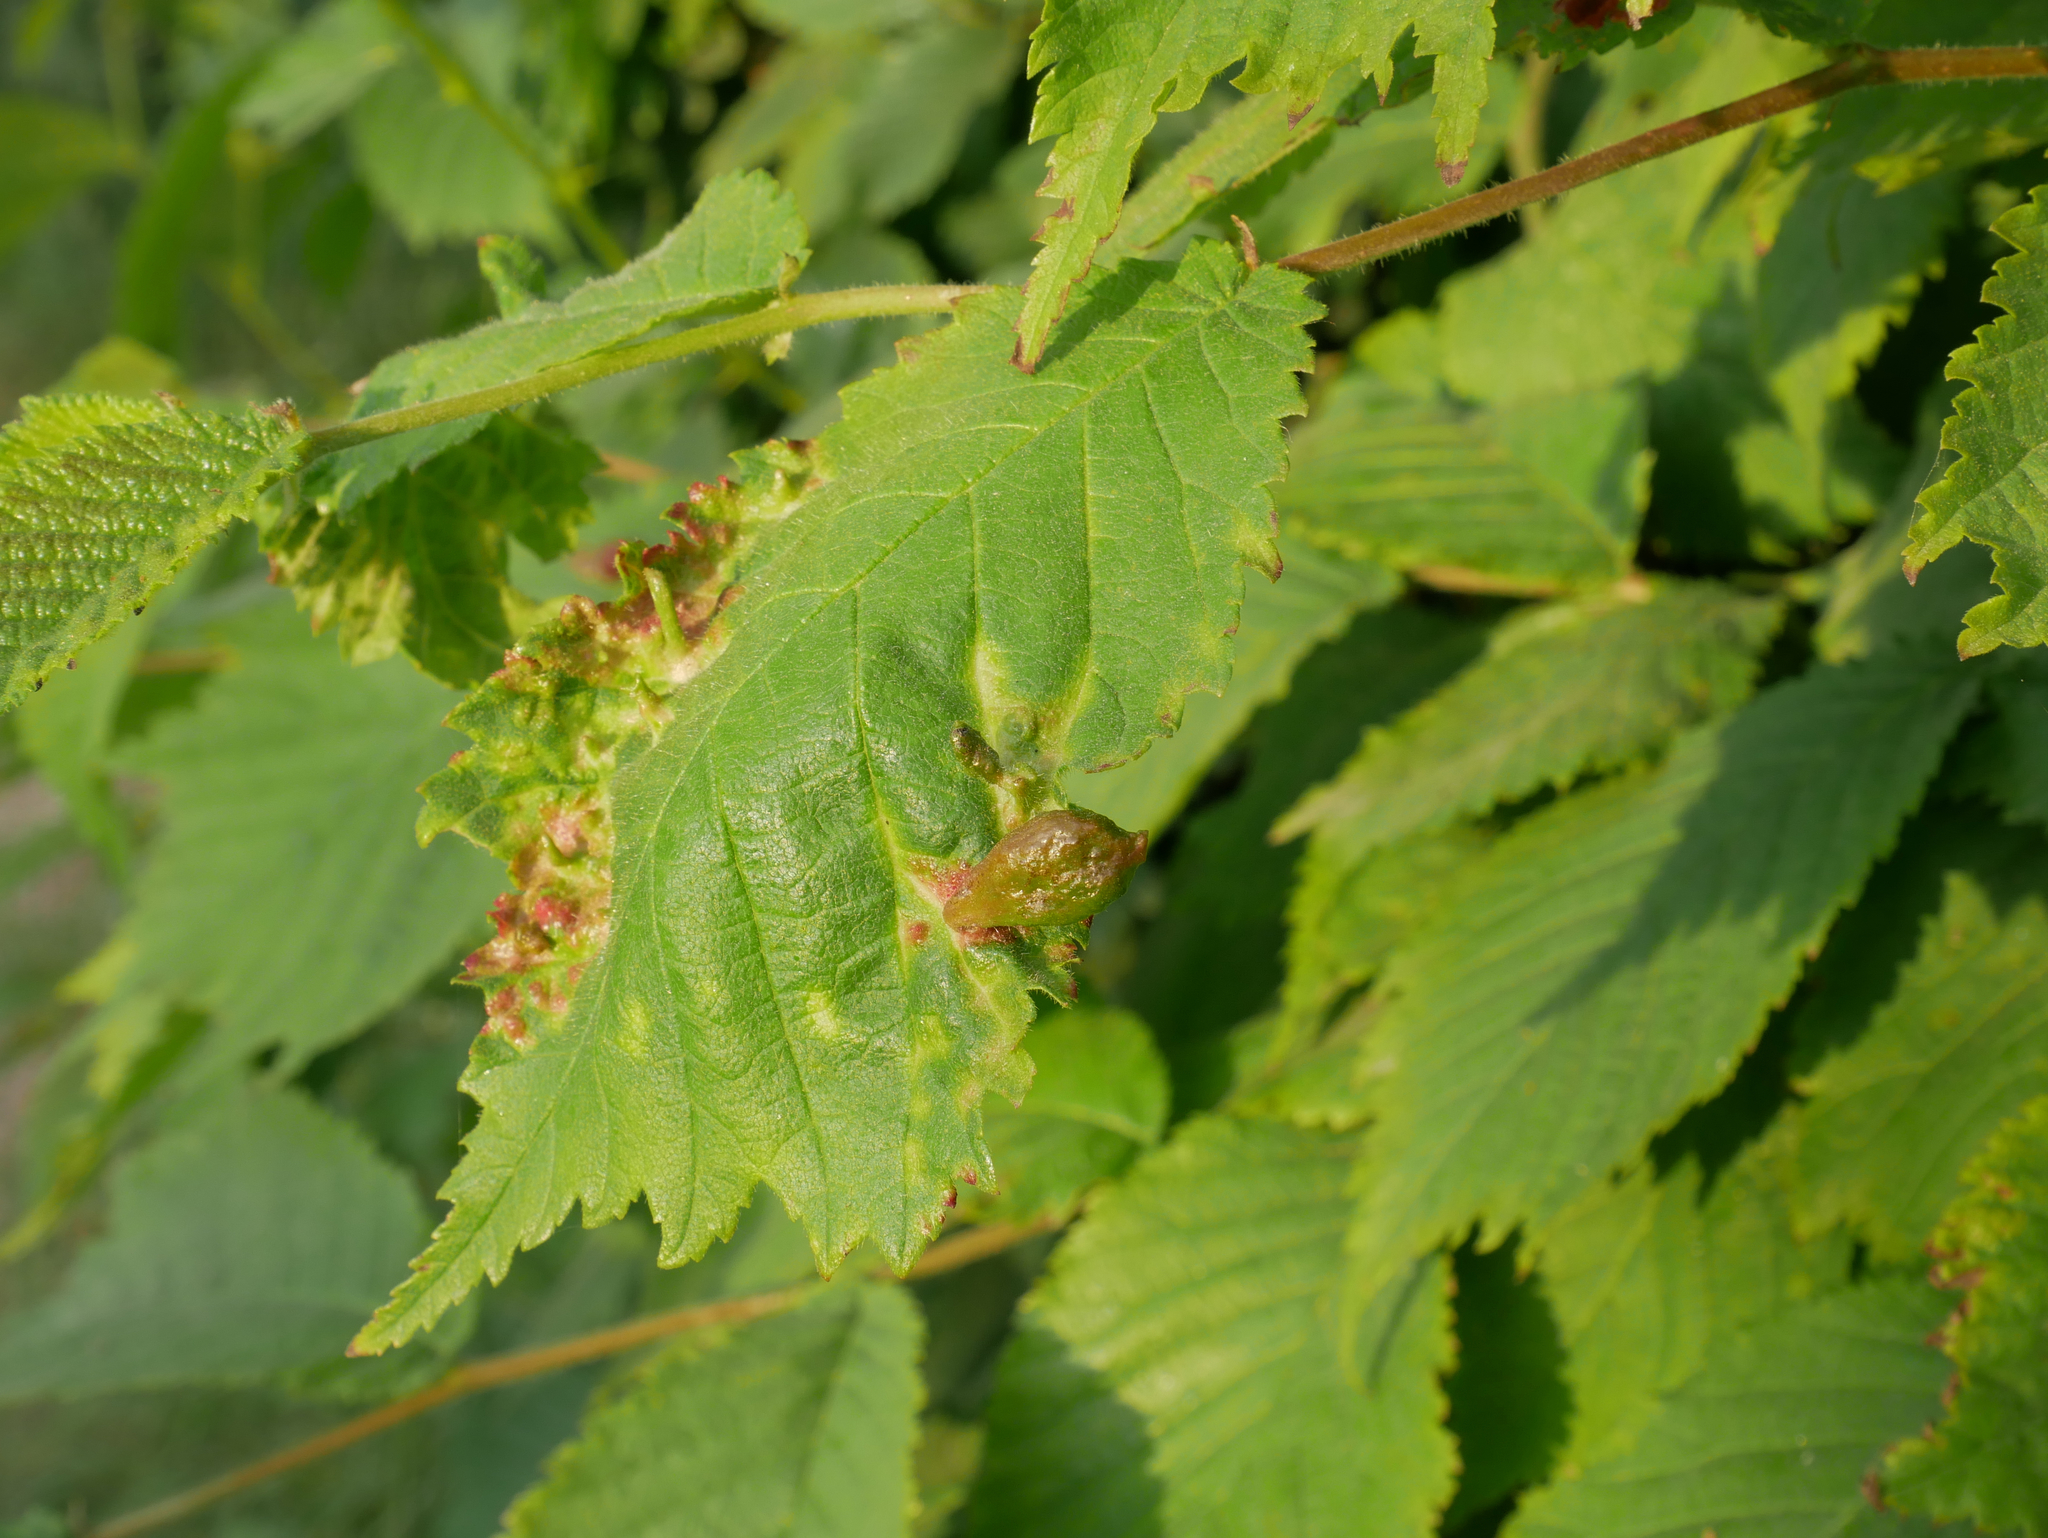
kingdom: Animalia
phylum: Arthropoda
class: Insecta
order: Hemiptera
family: Aphididae
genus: Tetraneura
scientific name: Tetraneura ulmi
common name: Aphid
